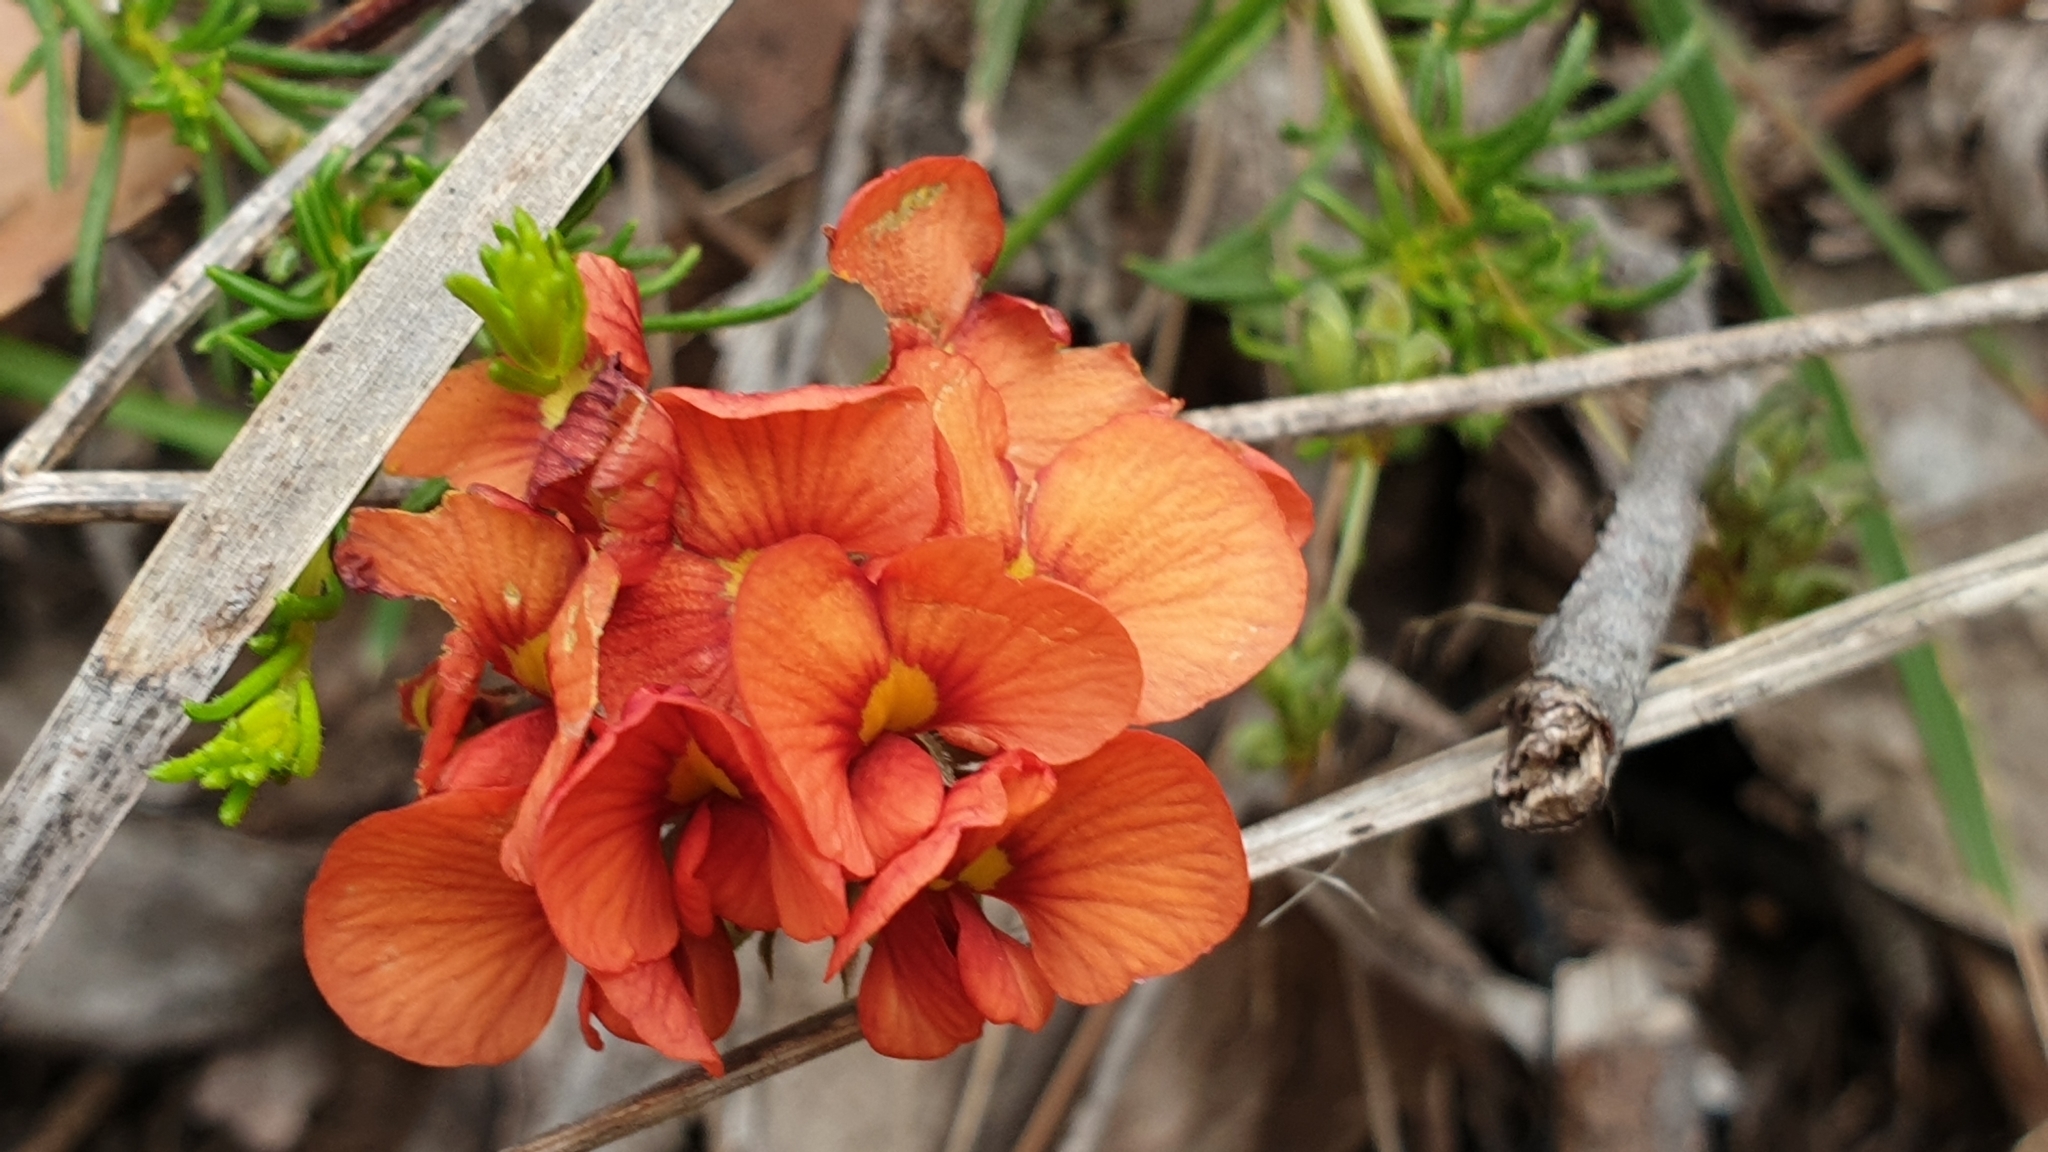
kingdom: Plantae
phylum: Tracheophyta
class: Magnoliopsida
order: Fabales
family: Fabaceae
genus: Dillwynia
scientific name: Dillwynia hispida
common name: Red parrot-pea
